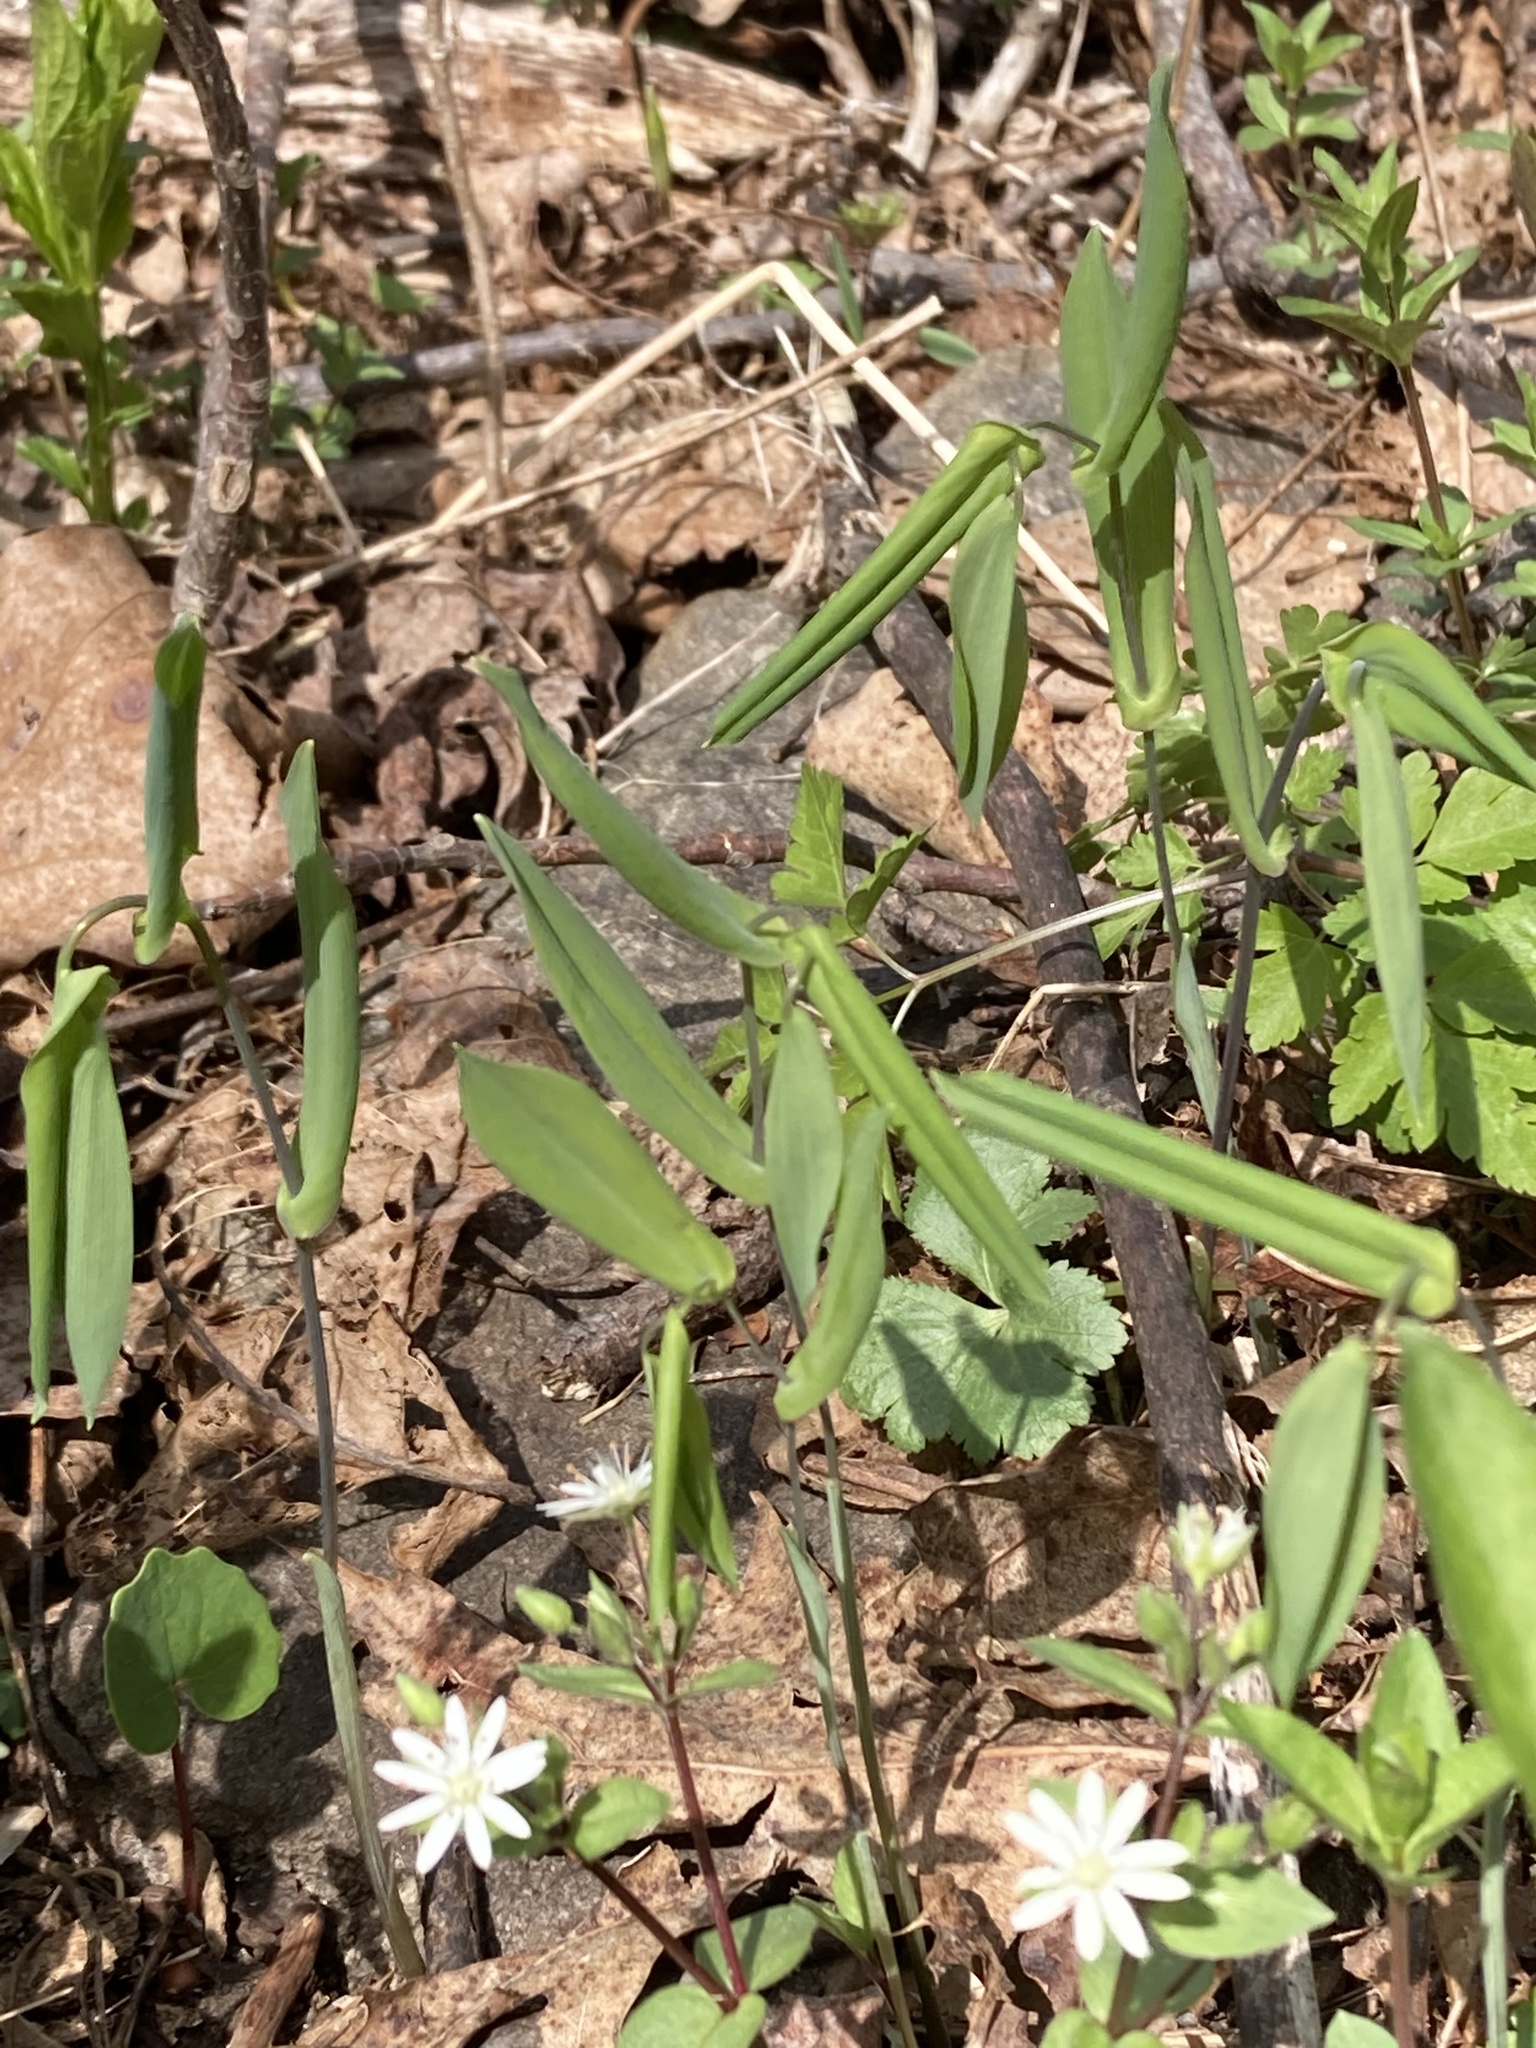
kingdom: Plantae
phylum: Tracheophyta
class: Liliopsida
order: Liliales
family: Colchicaceae
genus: Uvularia
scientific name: Uvularia perfoliata
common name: Perfoliate bellwort
